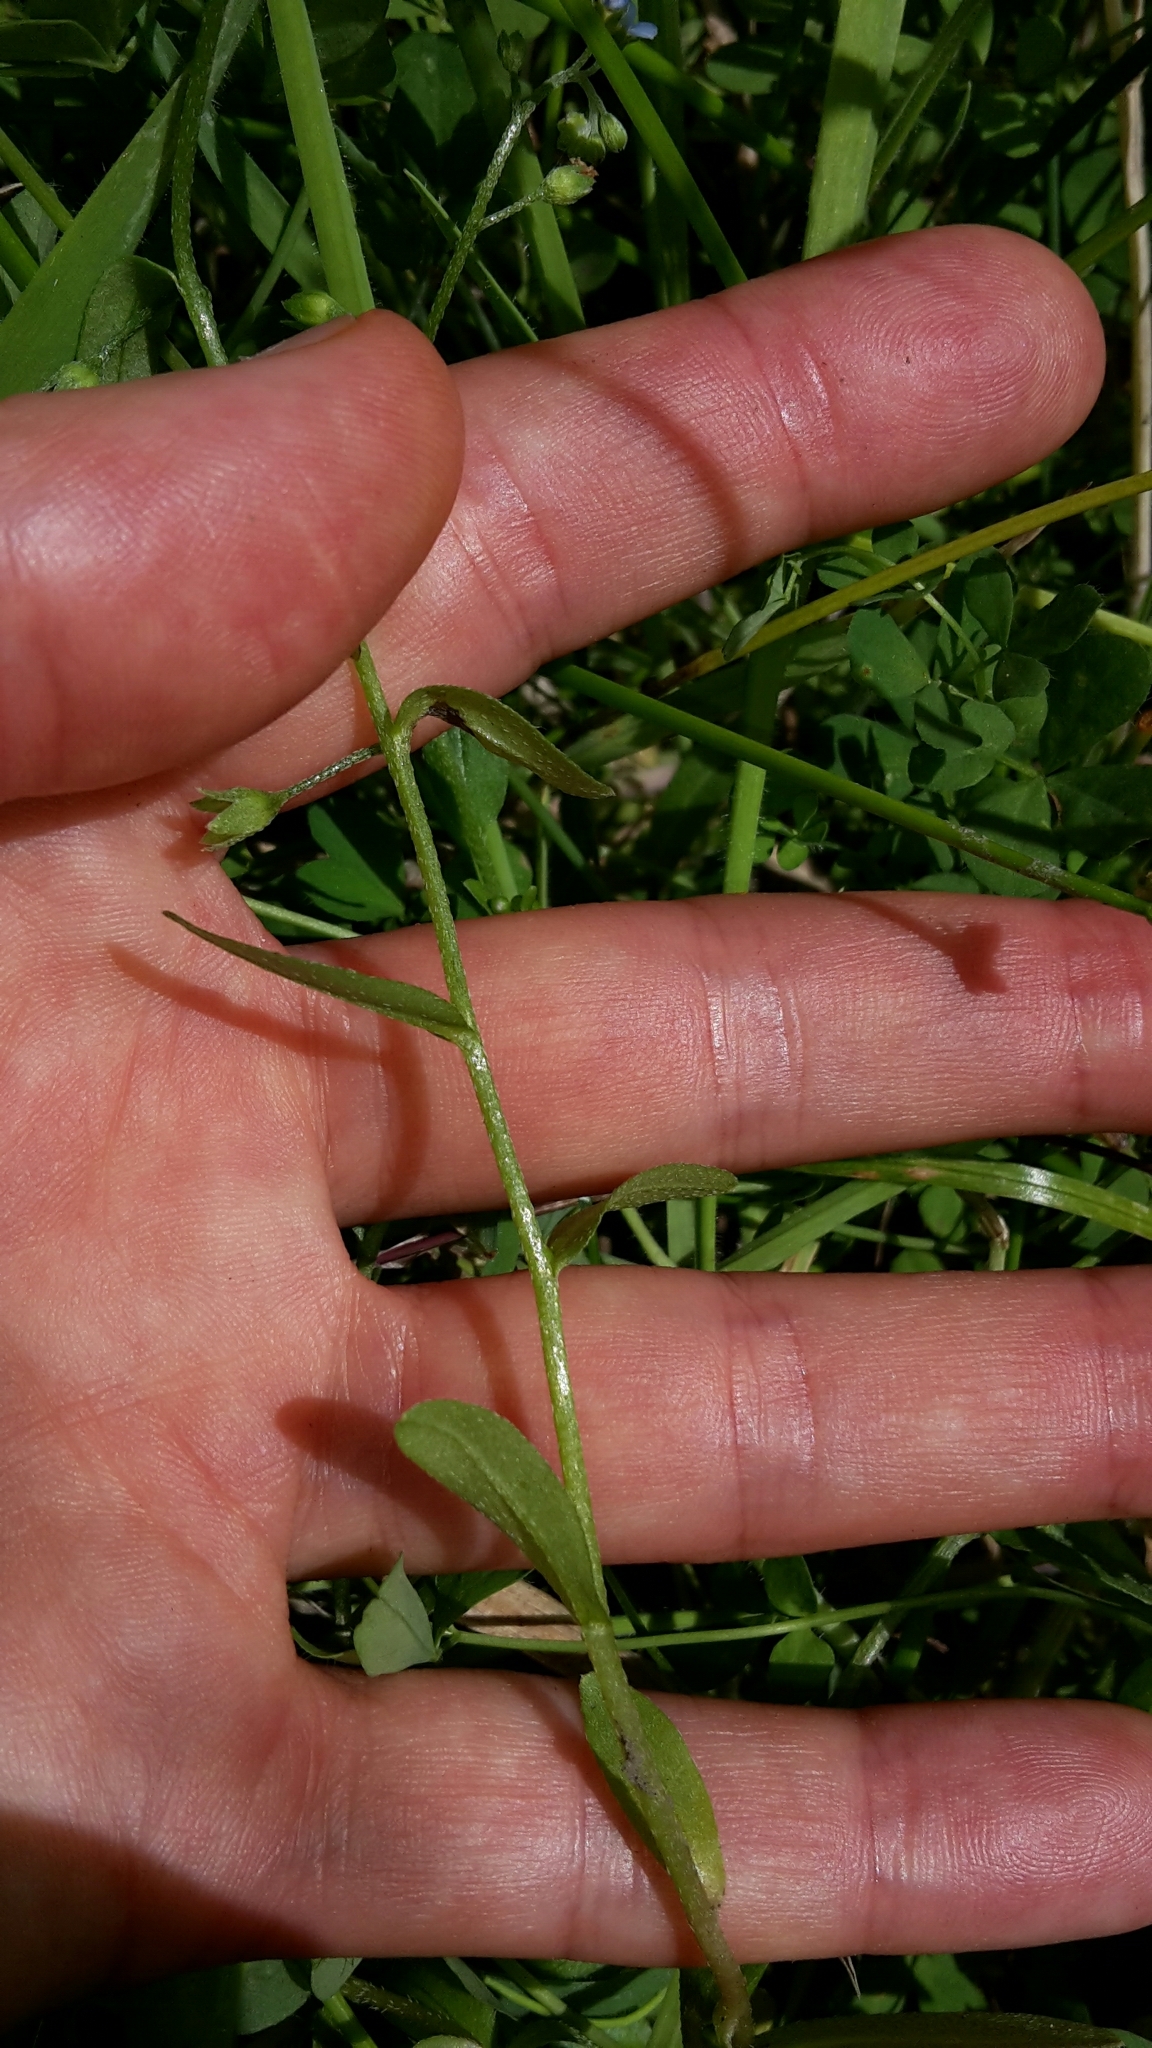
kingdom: Plantae
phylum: Tracheophyta
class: Magnoliopsida
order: Boraginales
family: Boraginaceae
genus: Myosotis
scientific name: Myosotis laxa
